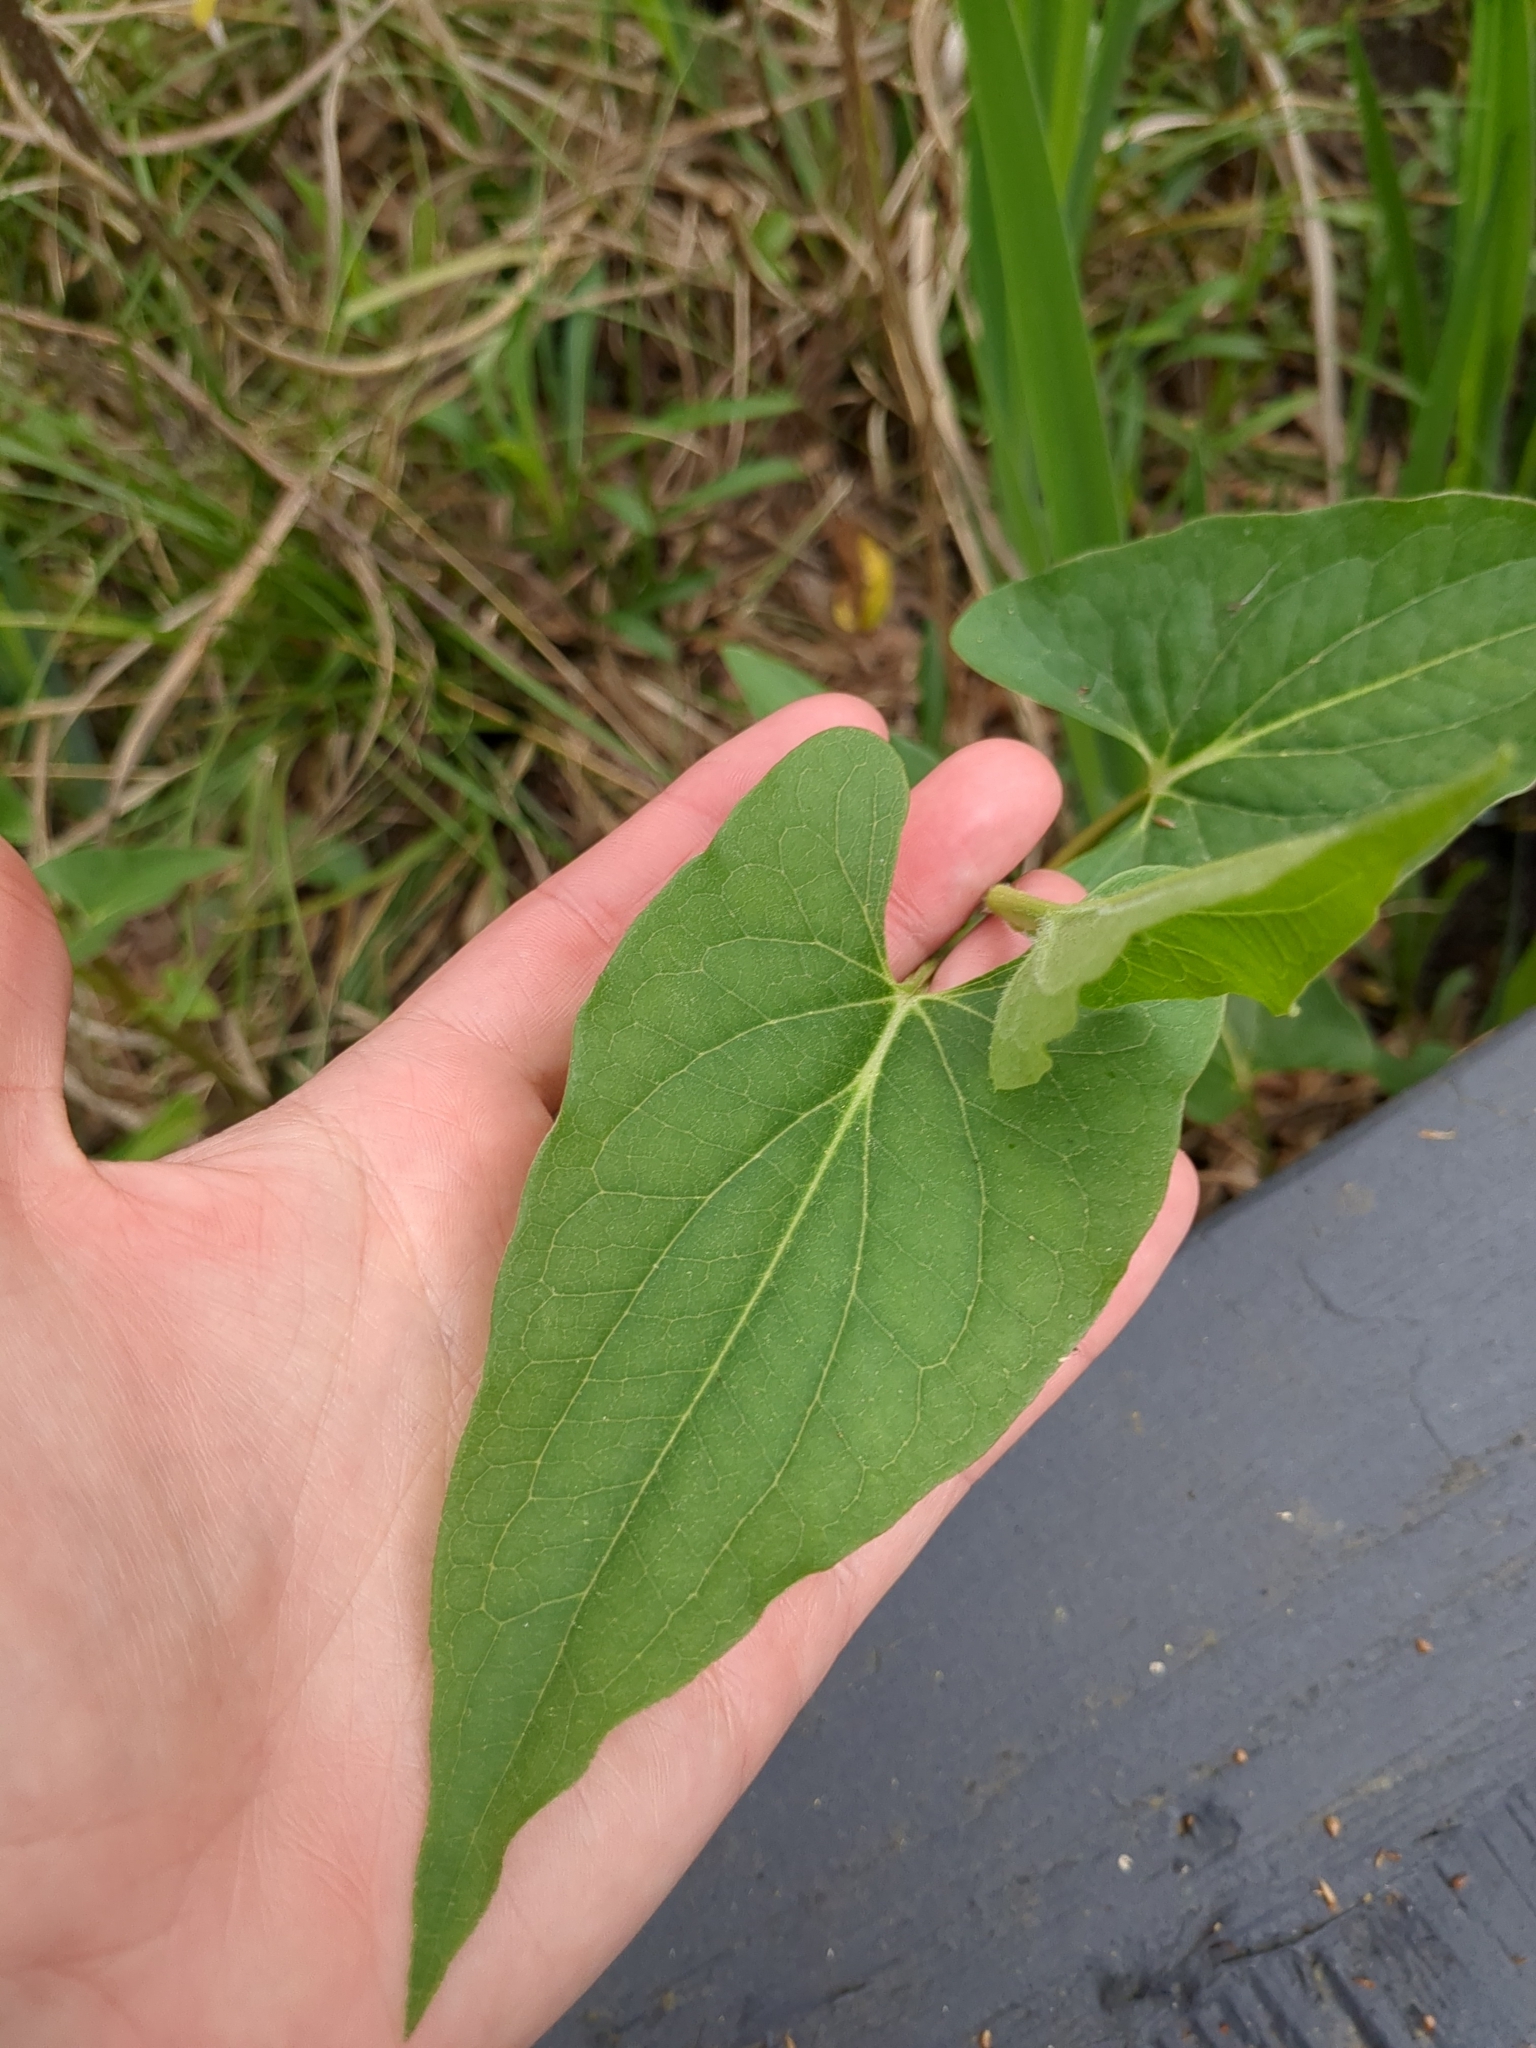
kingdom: Plantae
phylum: Tracheophyta
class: Magnoliopsida
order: Piperales
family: Saururaceae
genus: Saururus
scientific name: Saururus cernuus
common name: Lizard's-tail
